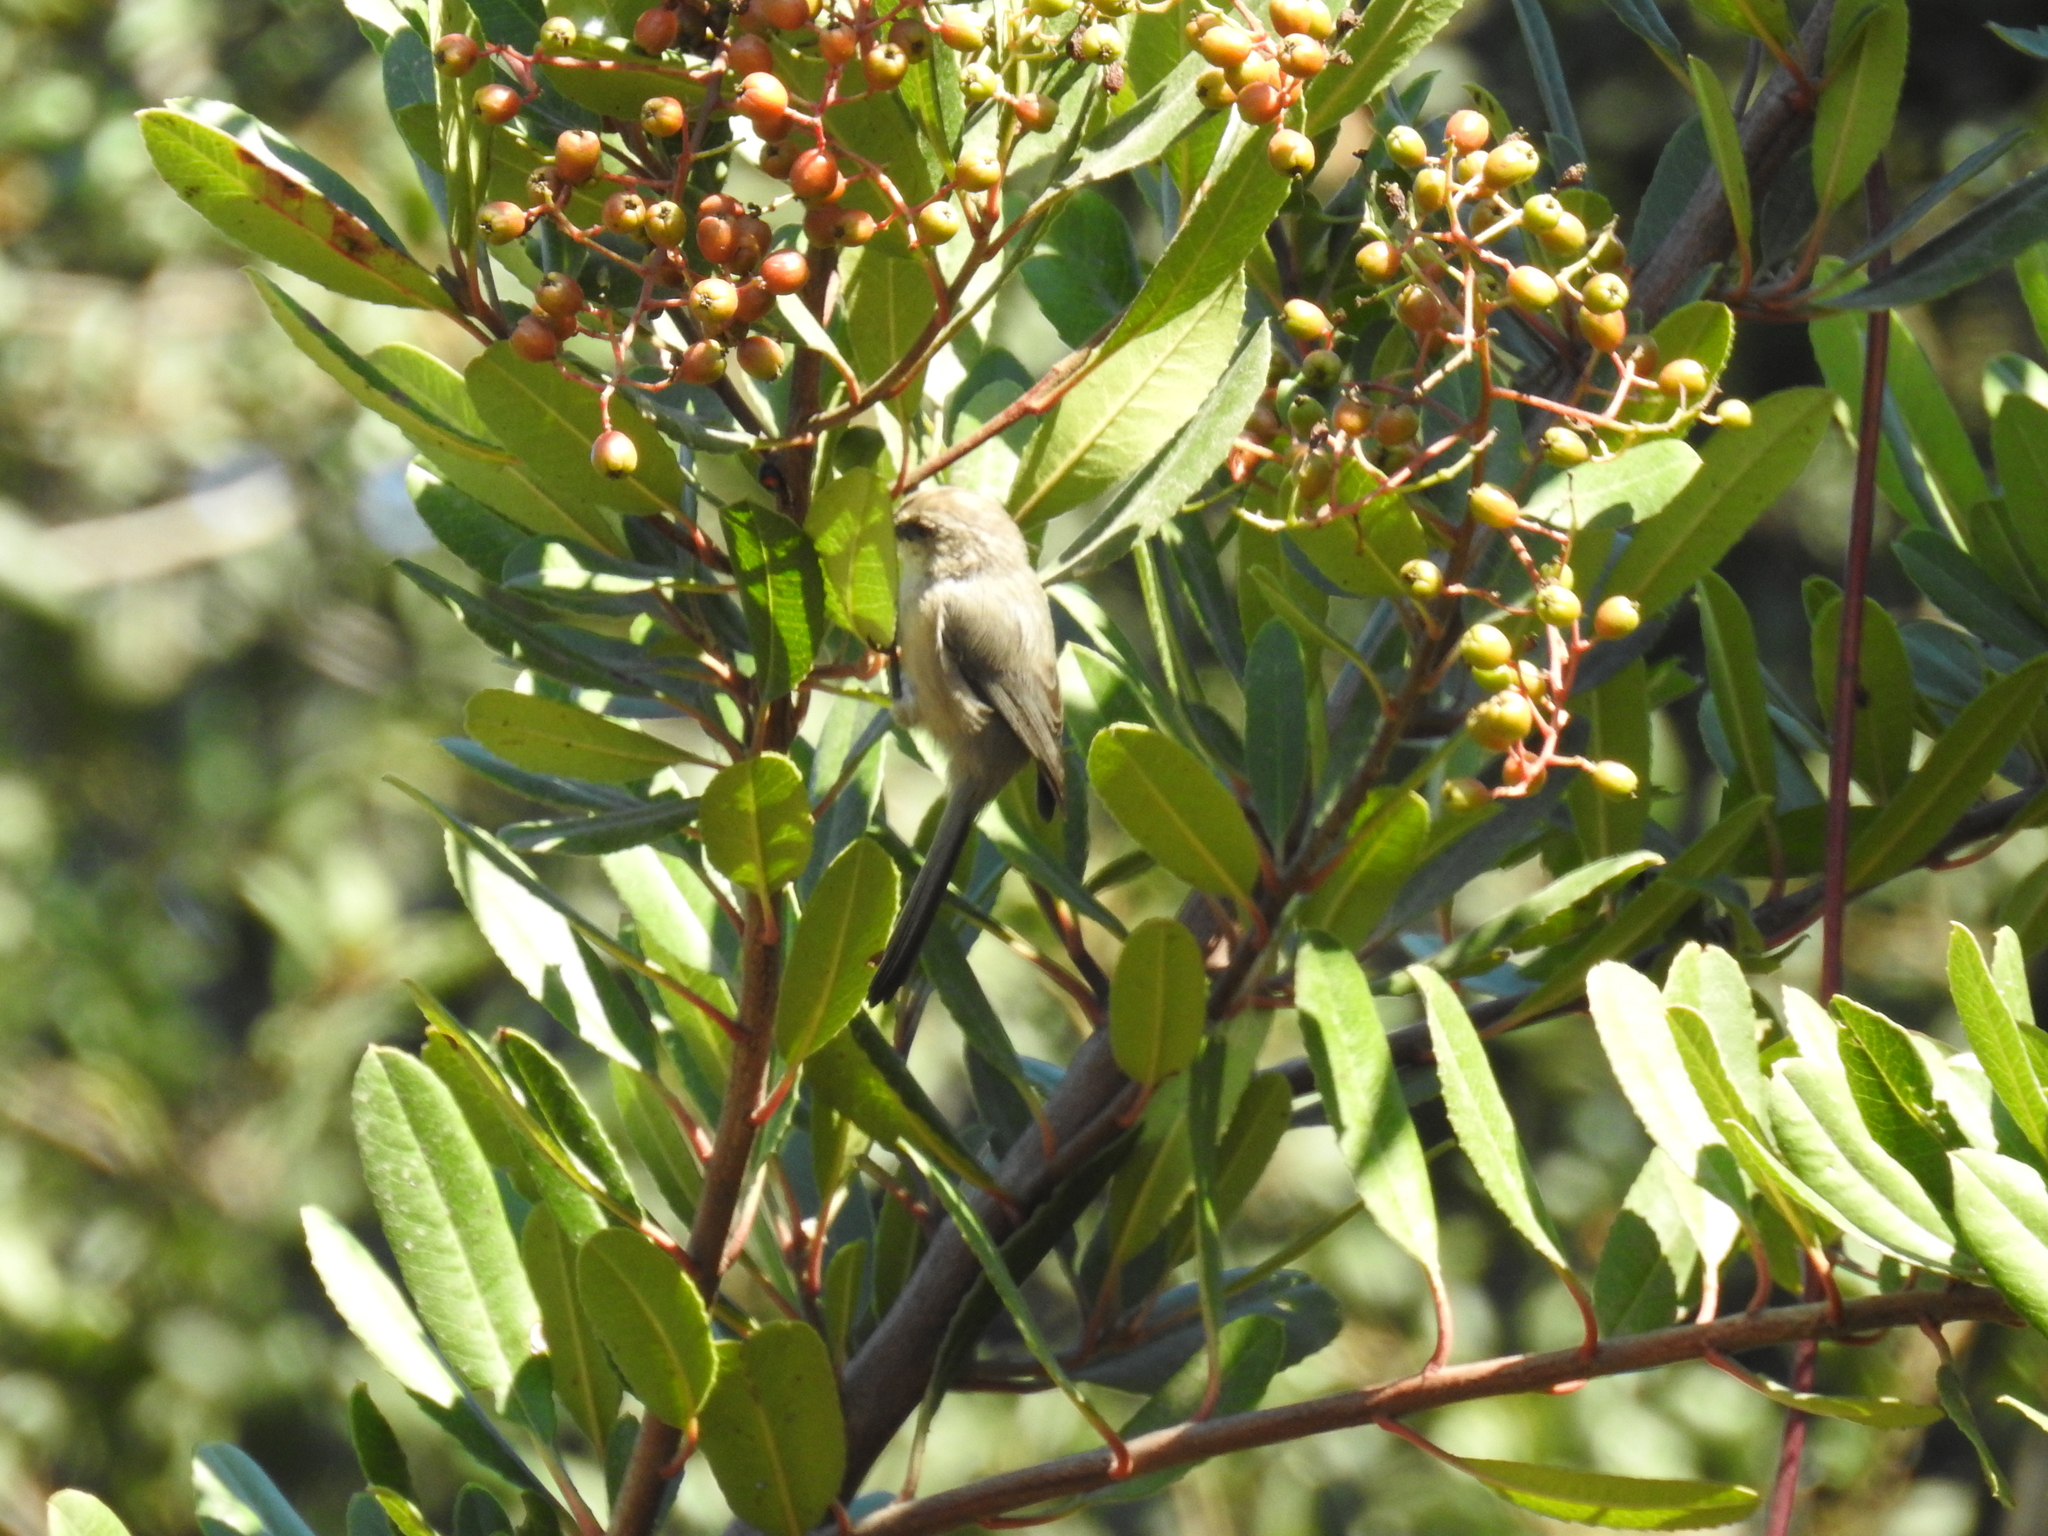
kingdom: Animalia
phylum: Chordata
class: Aves
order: Passeriformes
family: Aegithalidae
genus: Psaltriparus
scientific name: Psaltriparus minimus
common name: American bushtit
